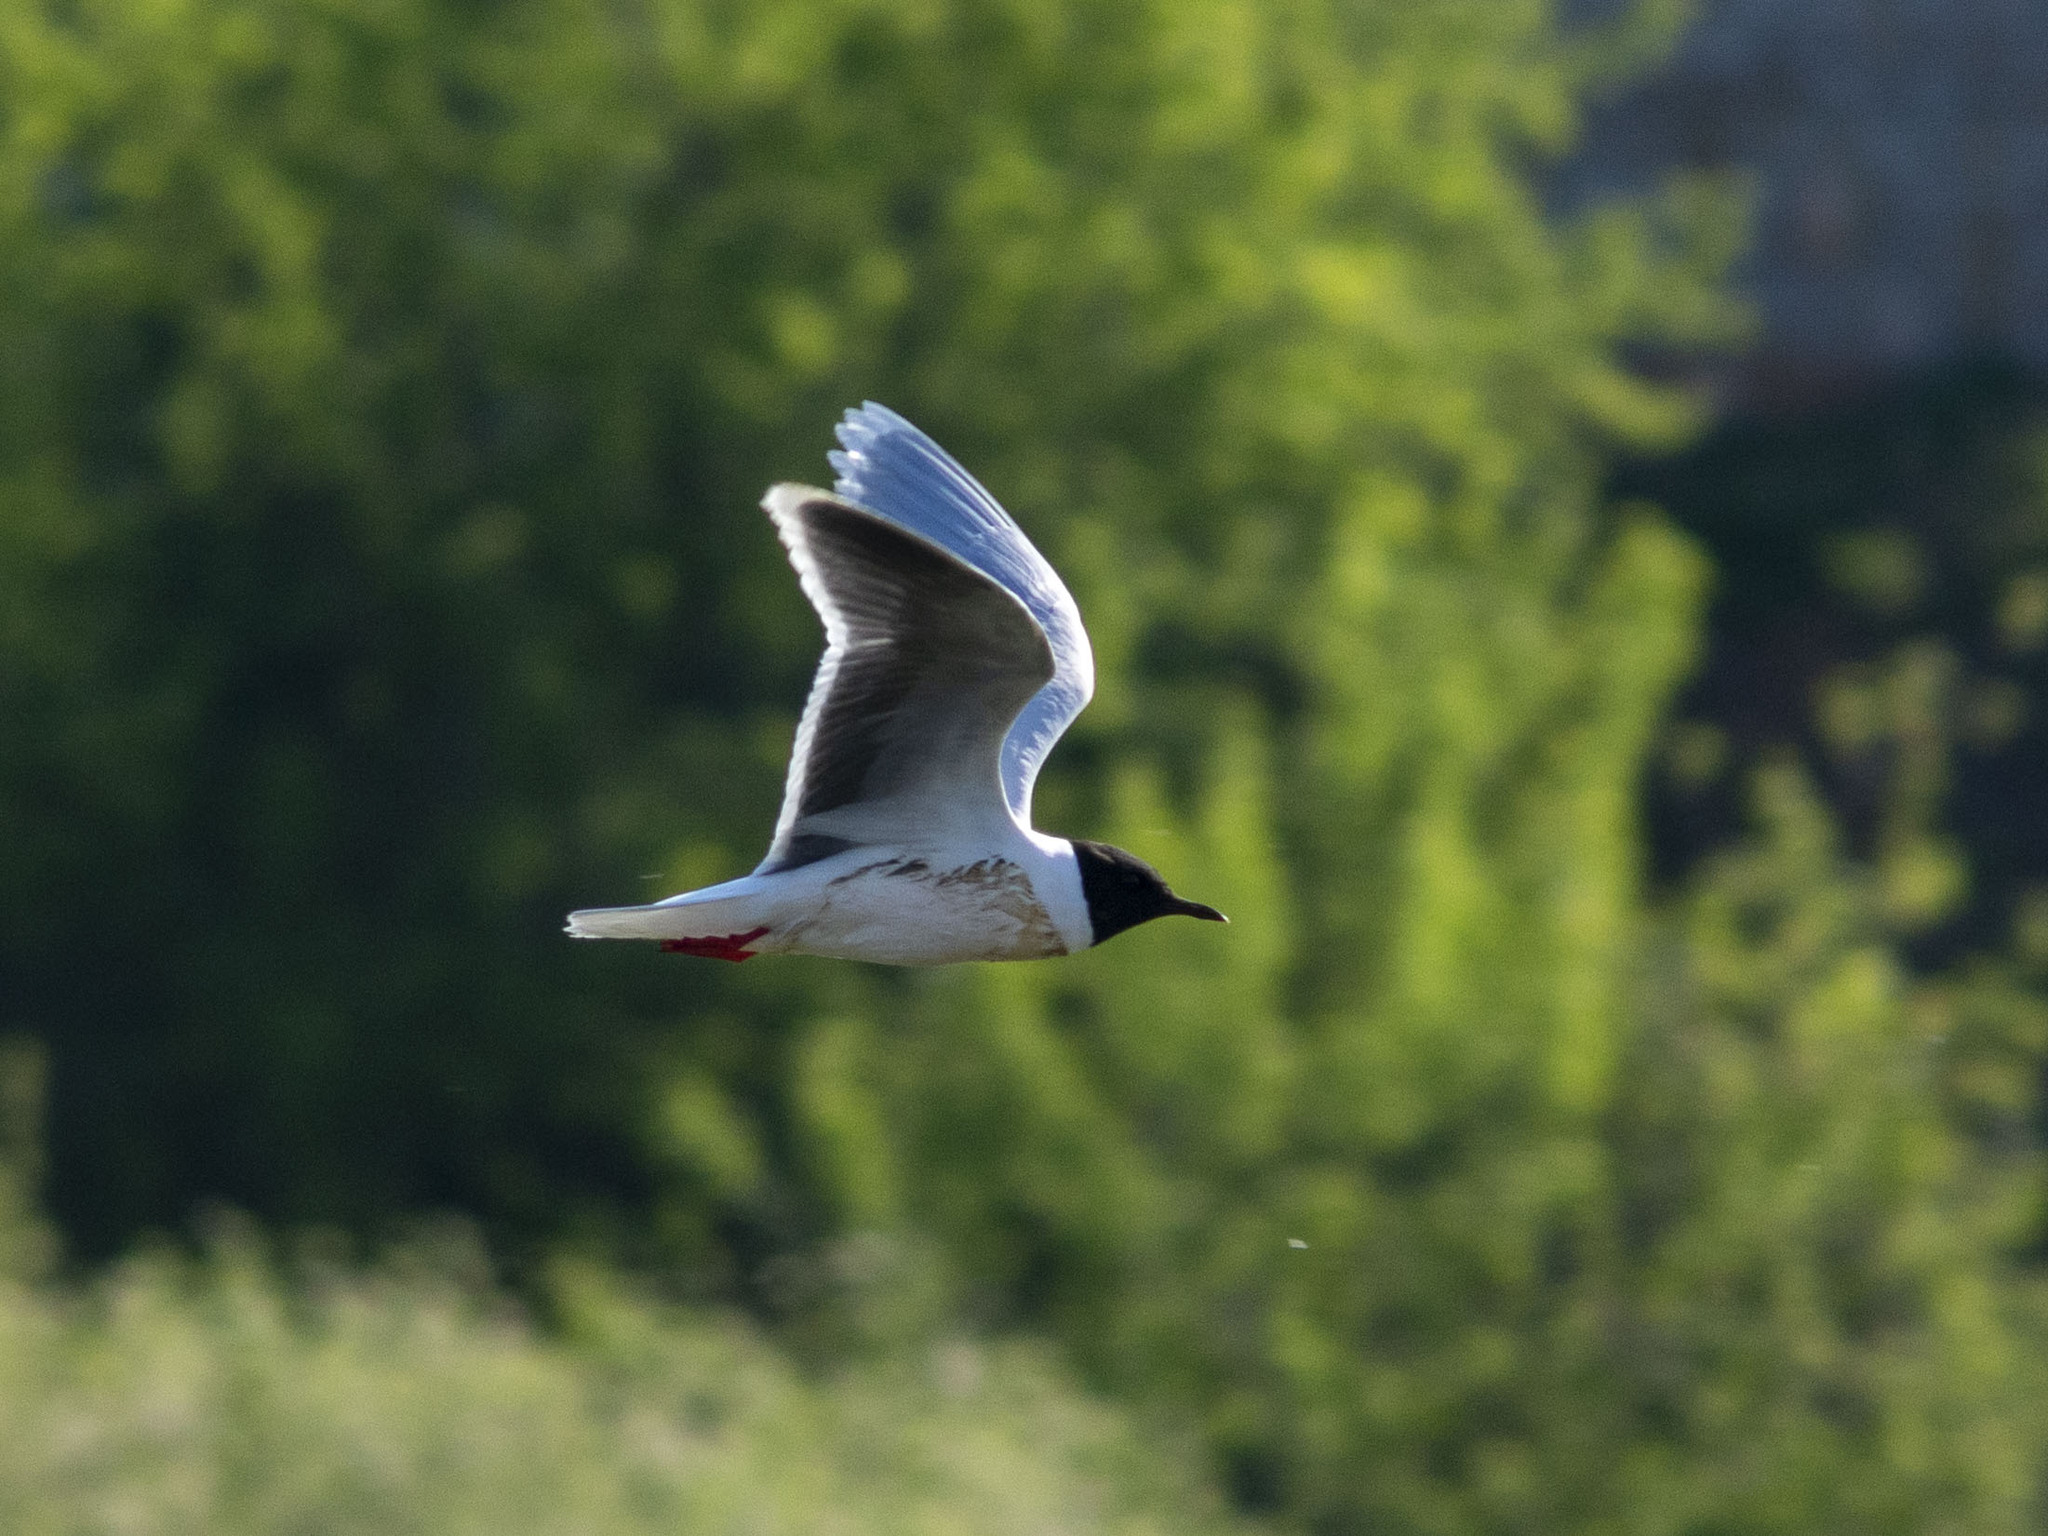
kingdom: Animalia
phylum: Chordata
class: Aves
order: Charadriiformes
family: Laridae
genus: Hydrocoloeus
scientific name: Hydrocoloeus minutus
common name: Little gull
